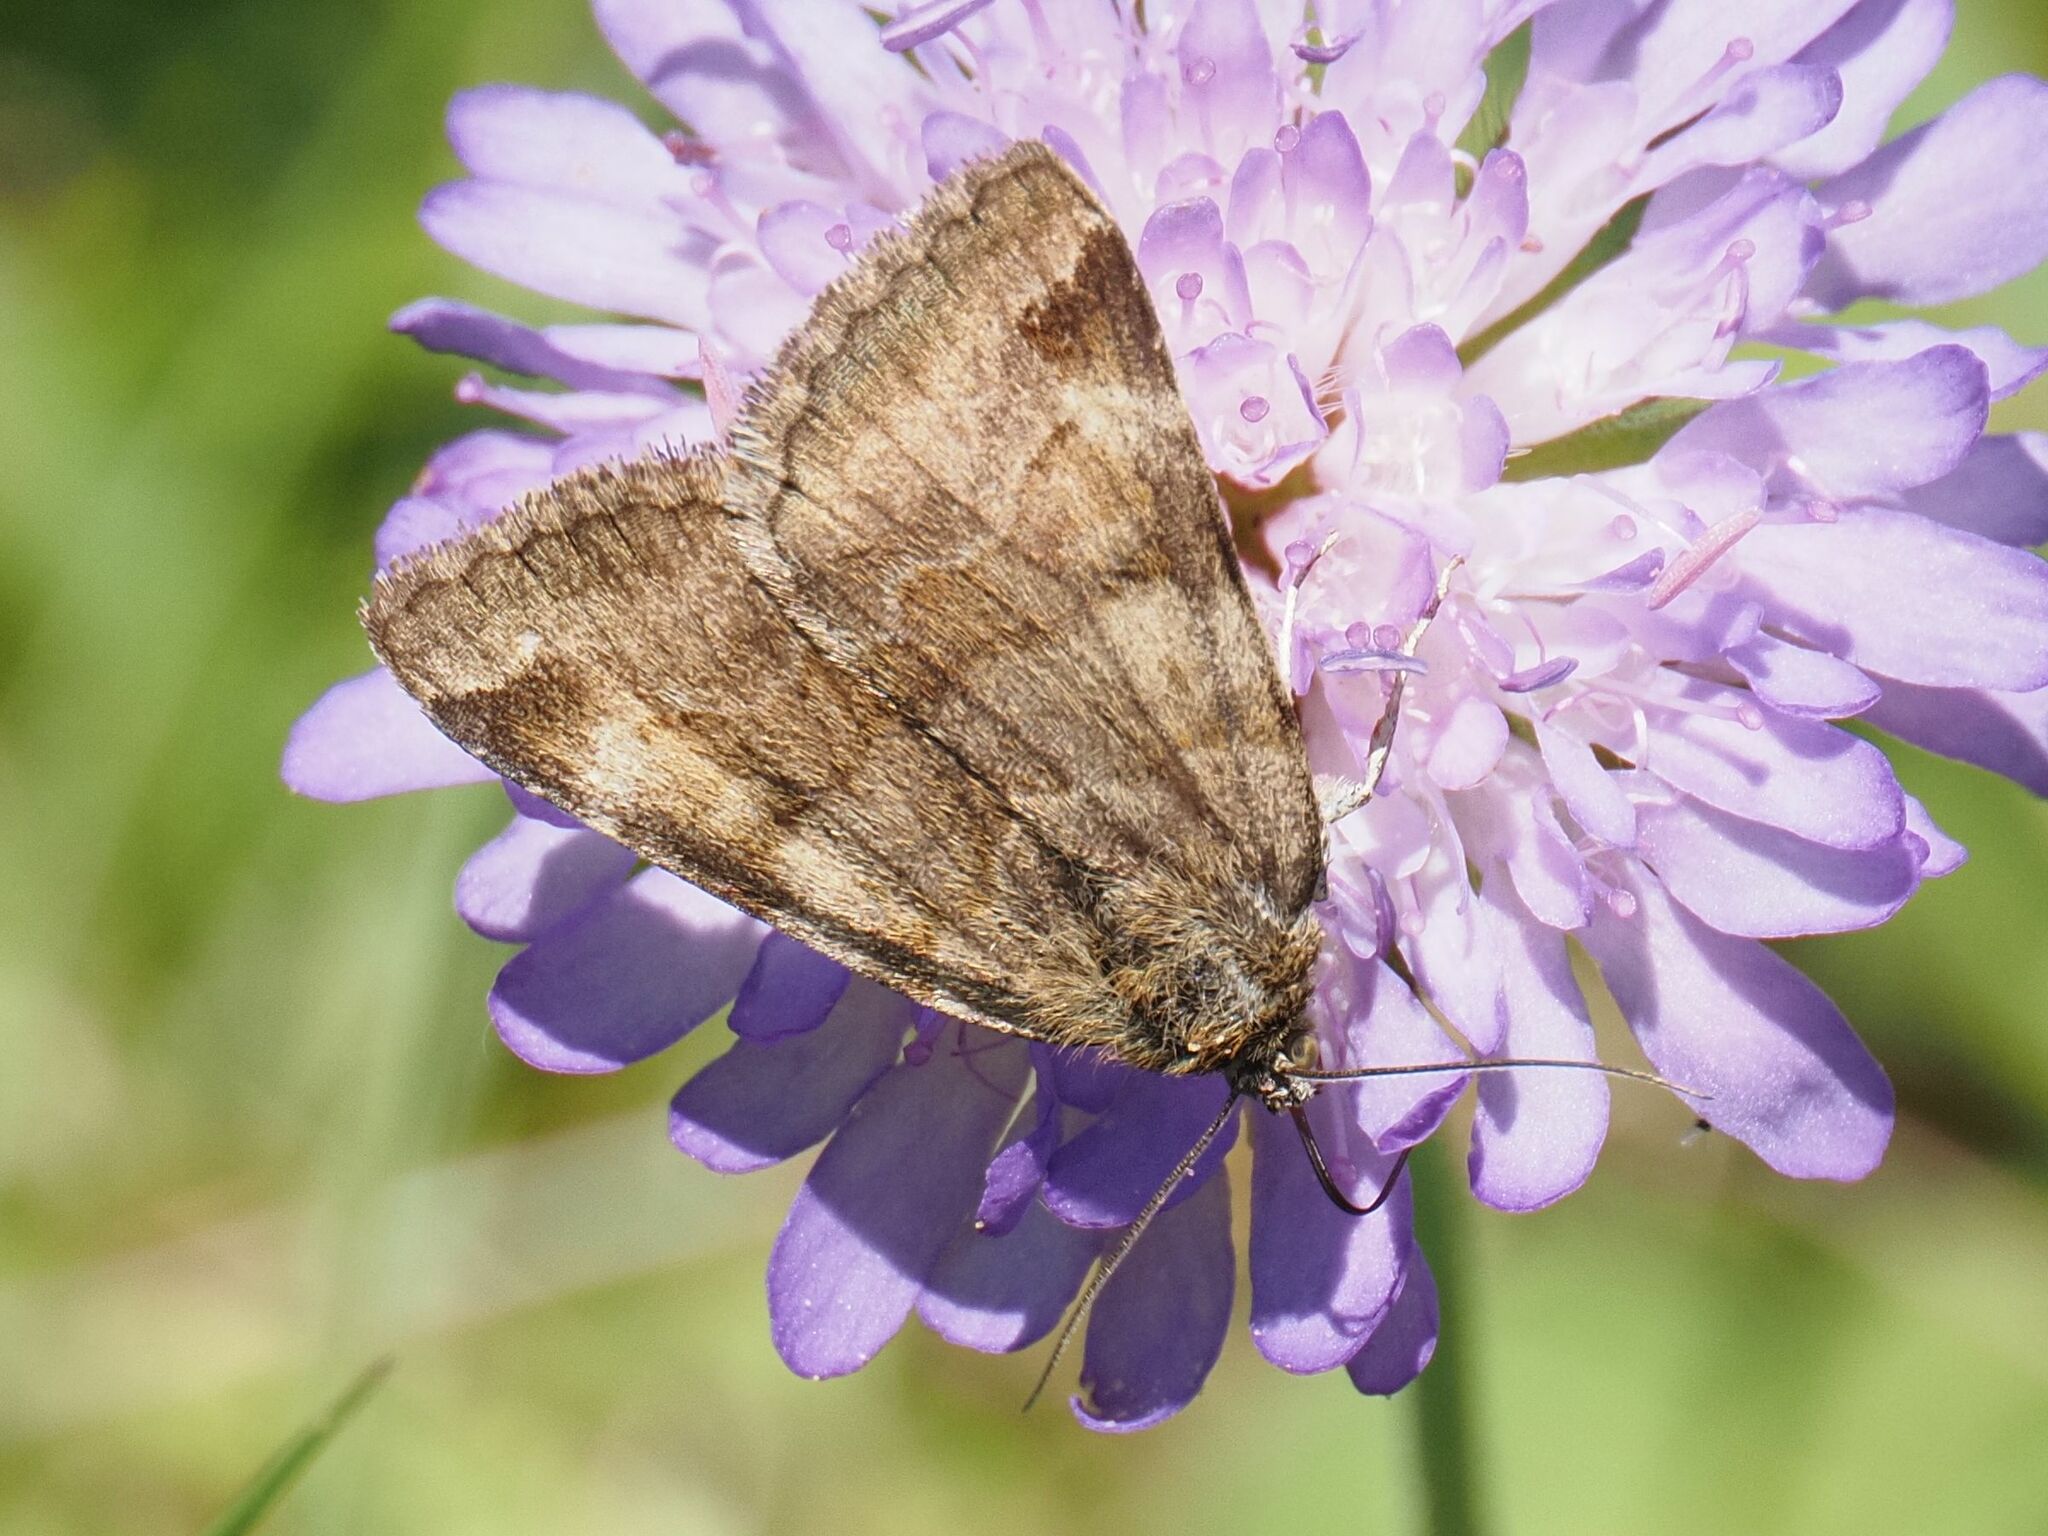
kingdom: Animalia
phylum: Arthropoda
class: Insecta
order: Lepidoptera
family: Erebidae
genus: Euclidia
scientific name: Euclidia glyphica
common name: Burnet companion
